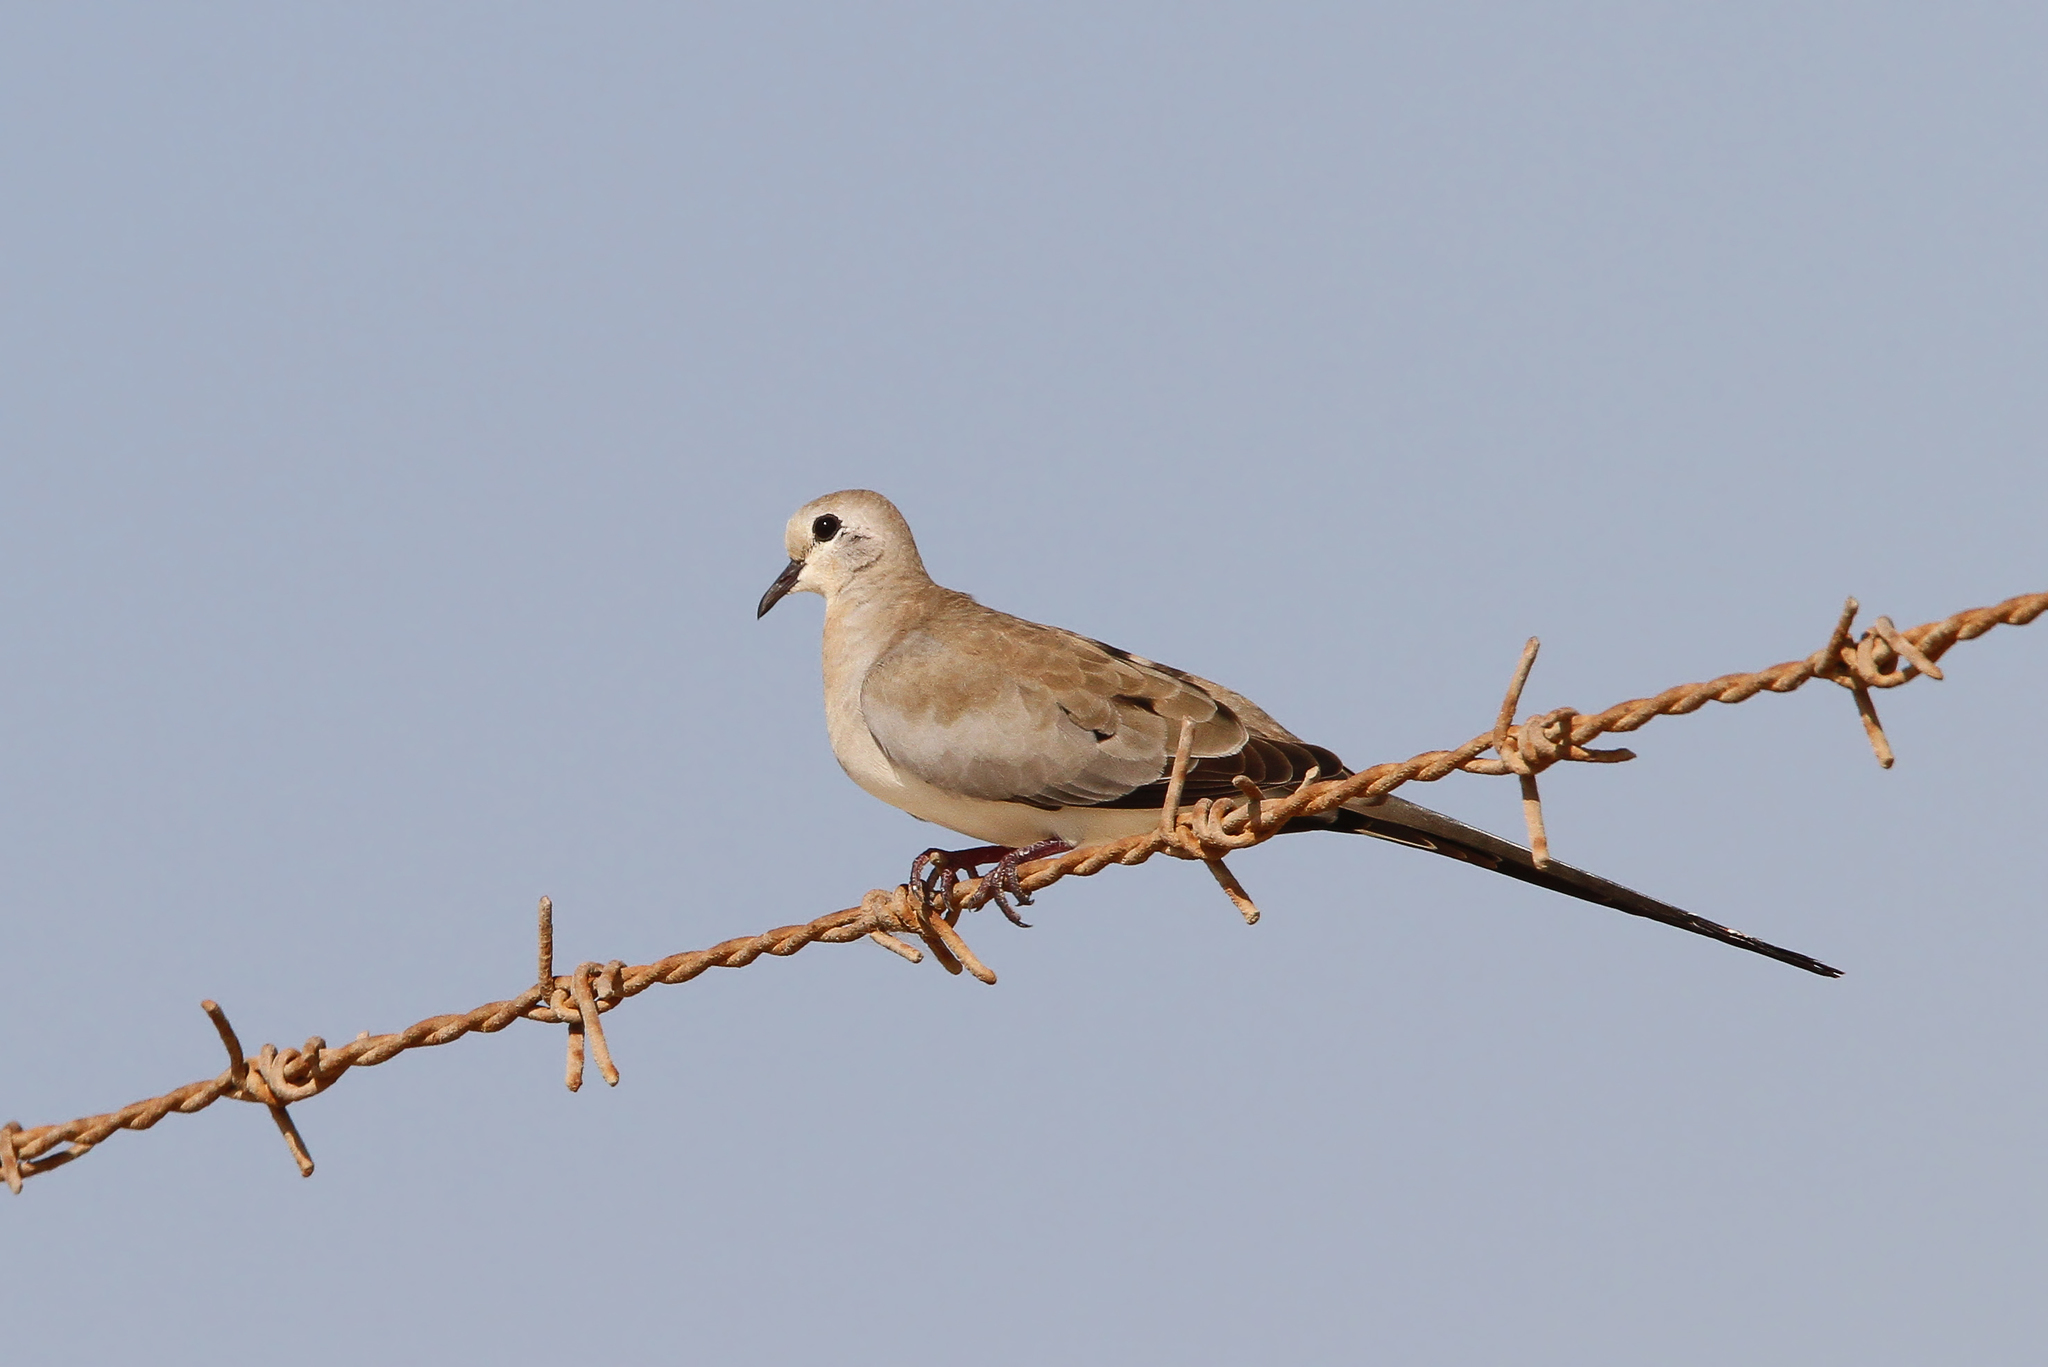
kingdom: Animalia
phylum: Chordata
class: Aves
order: Columbiformes
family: Columbidae
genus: Oena
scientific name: Oena capensis
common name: Namaqua dove
